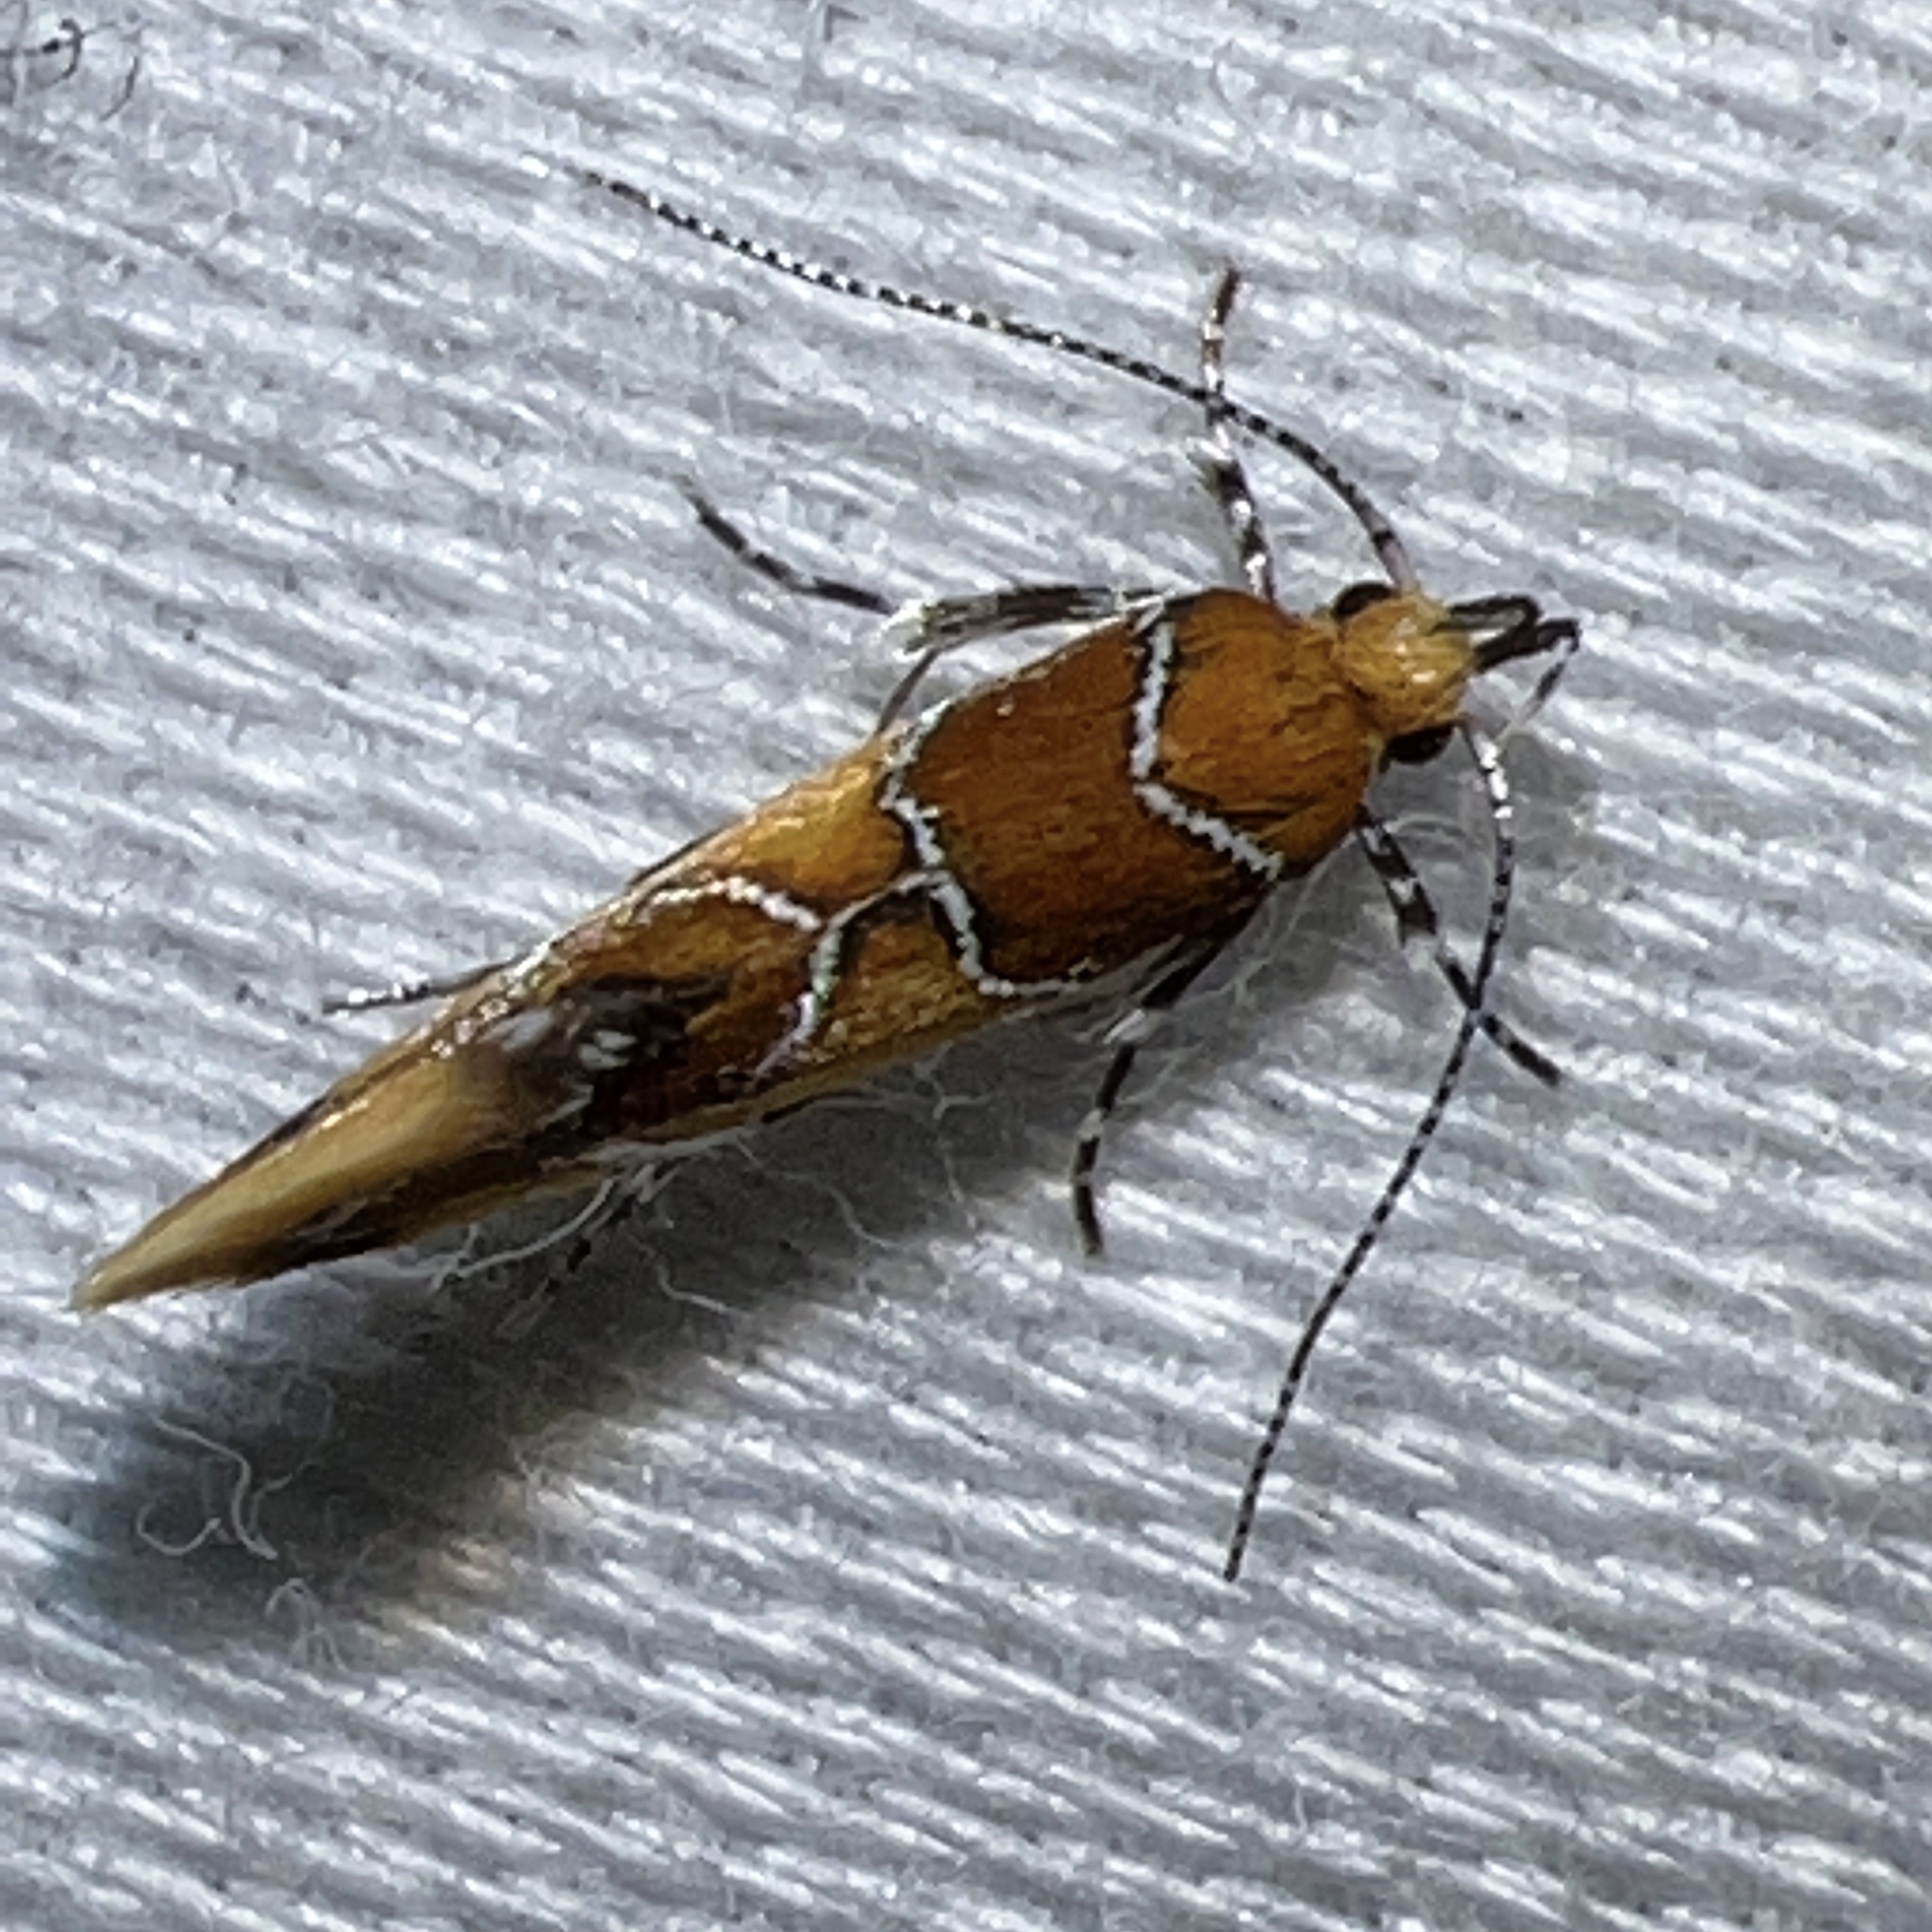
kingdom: Animalia
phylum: Arthropoda
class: Insecta
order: Lepidoptera
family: Oecophoridae
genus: Callima
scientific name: Callima argenticinctella
